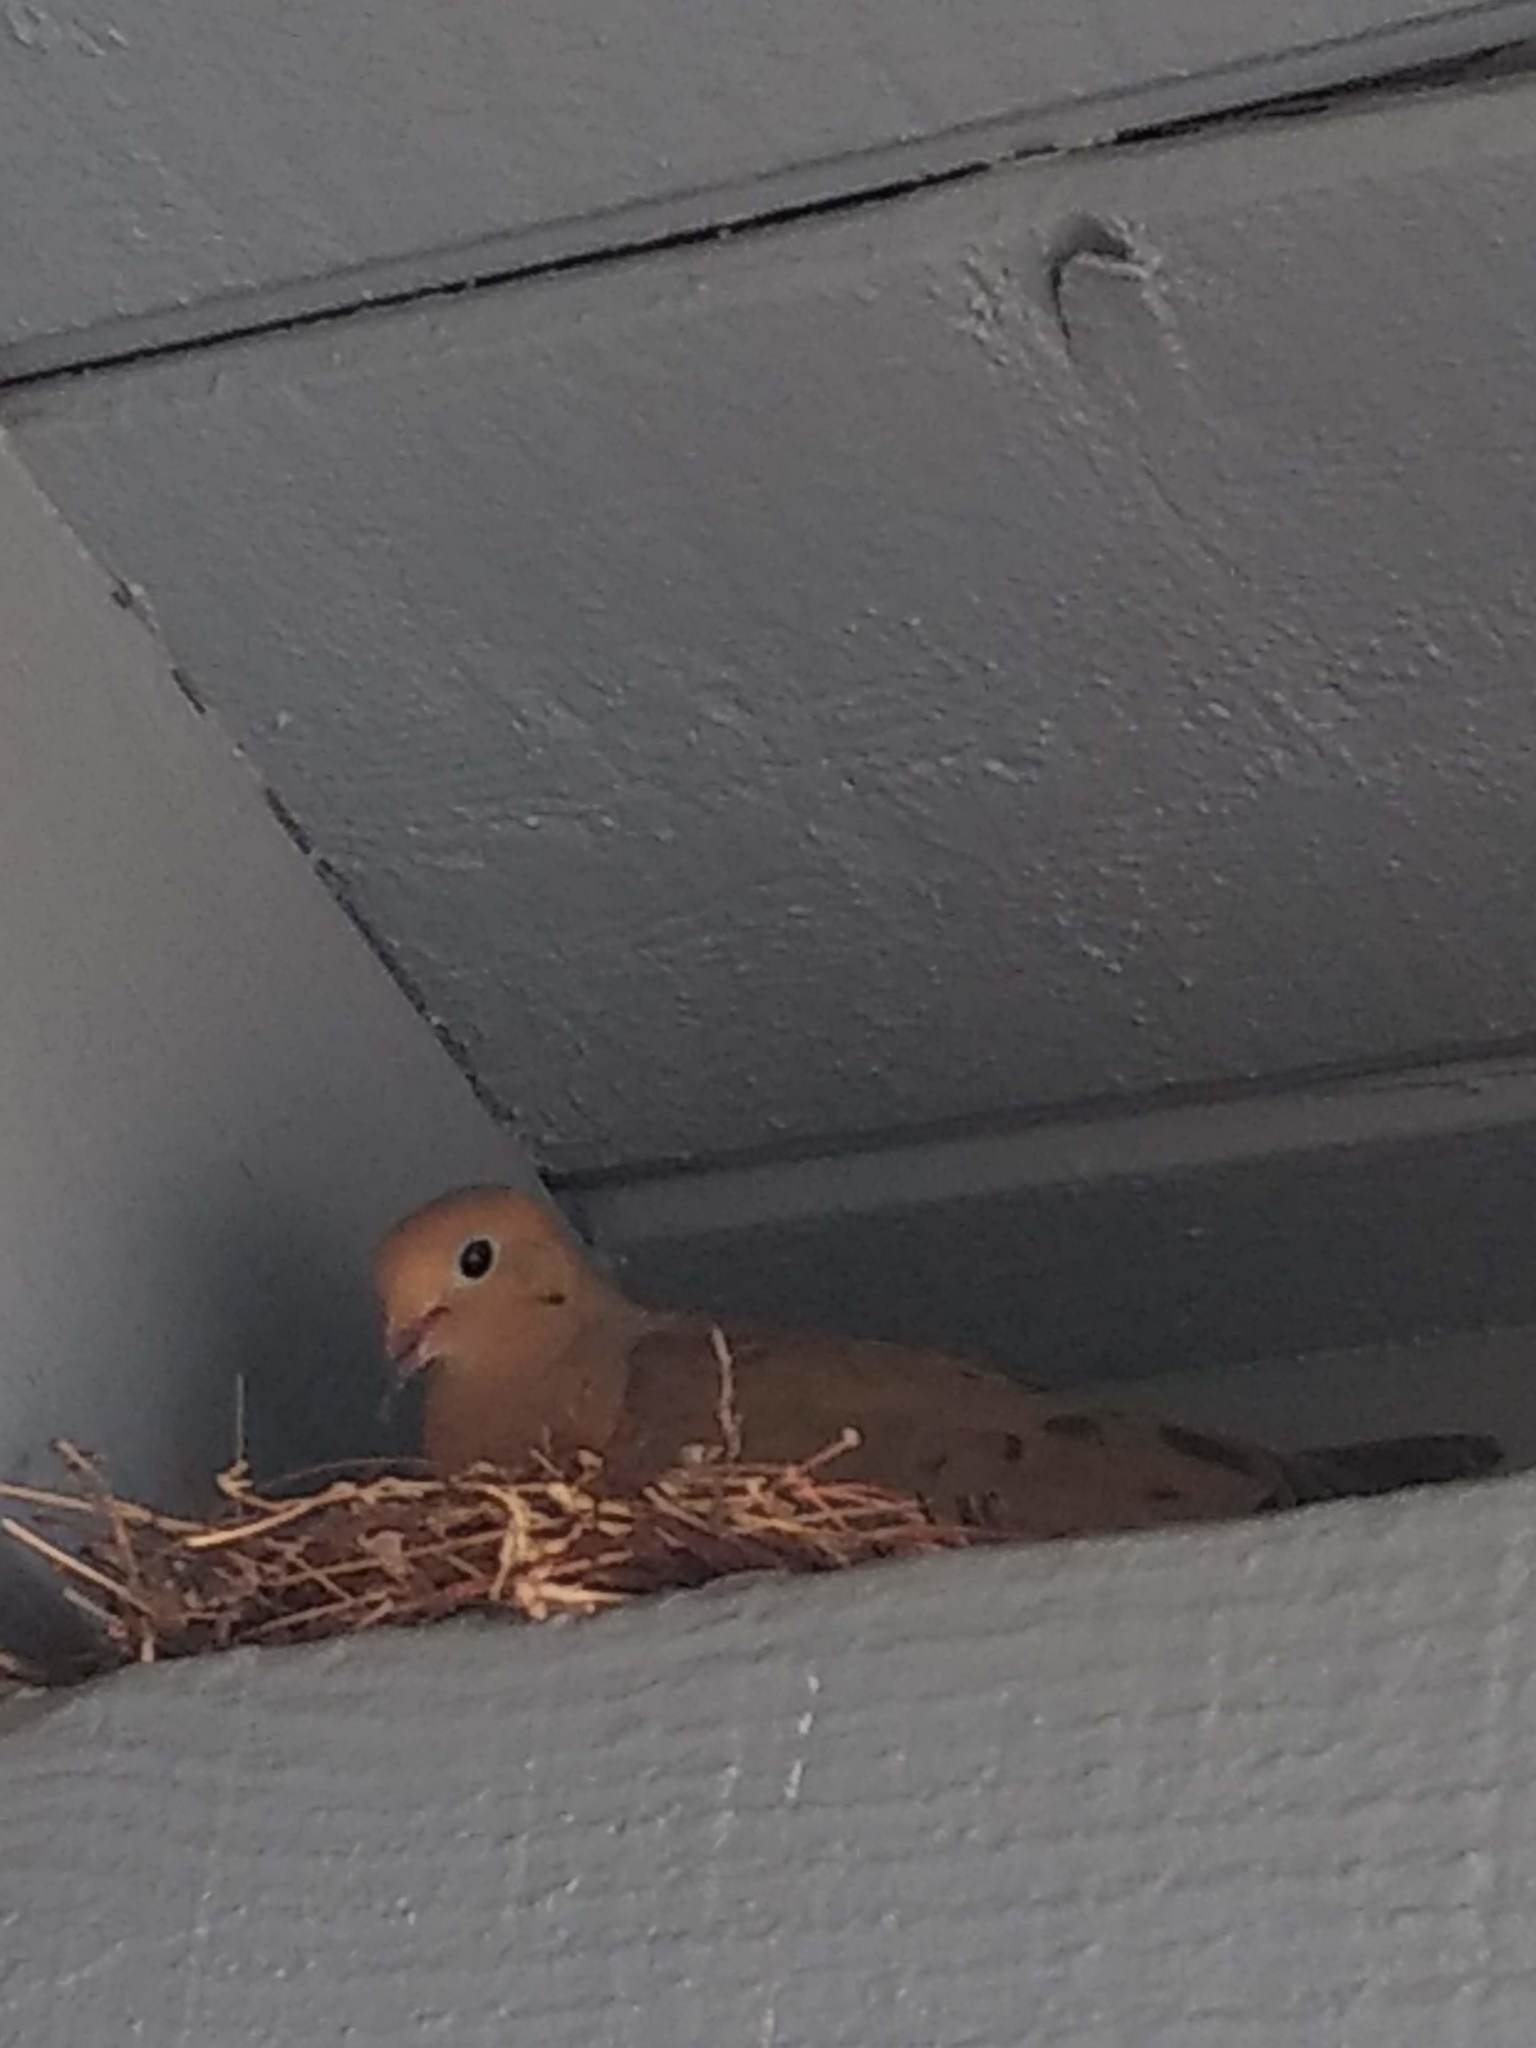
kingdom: Animalia
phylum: Chordata
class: Aves
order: Columbiformes
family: Columbidae
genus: Zenaida
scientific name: Zenaida macroura
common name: Mourning dove
